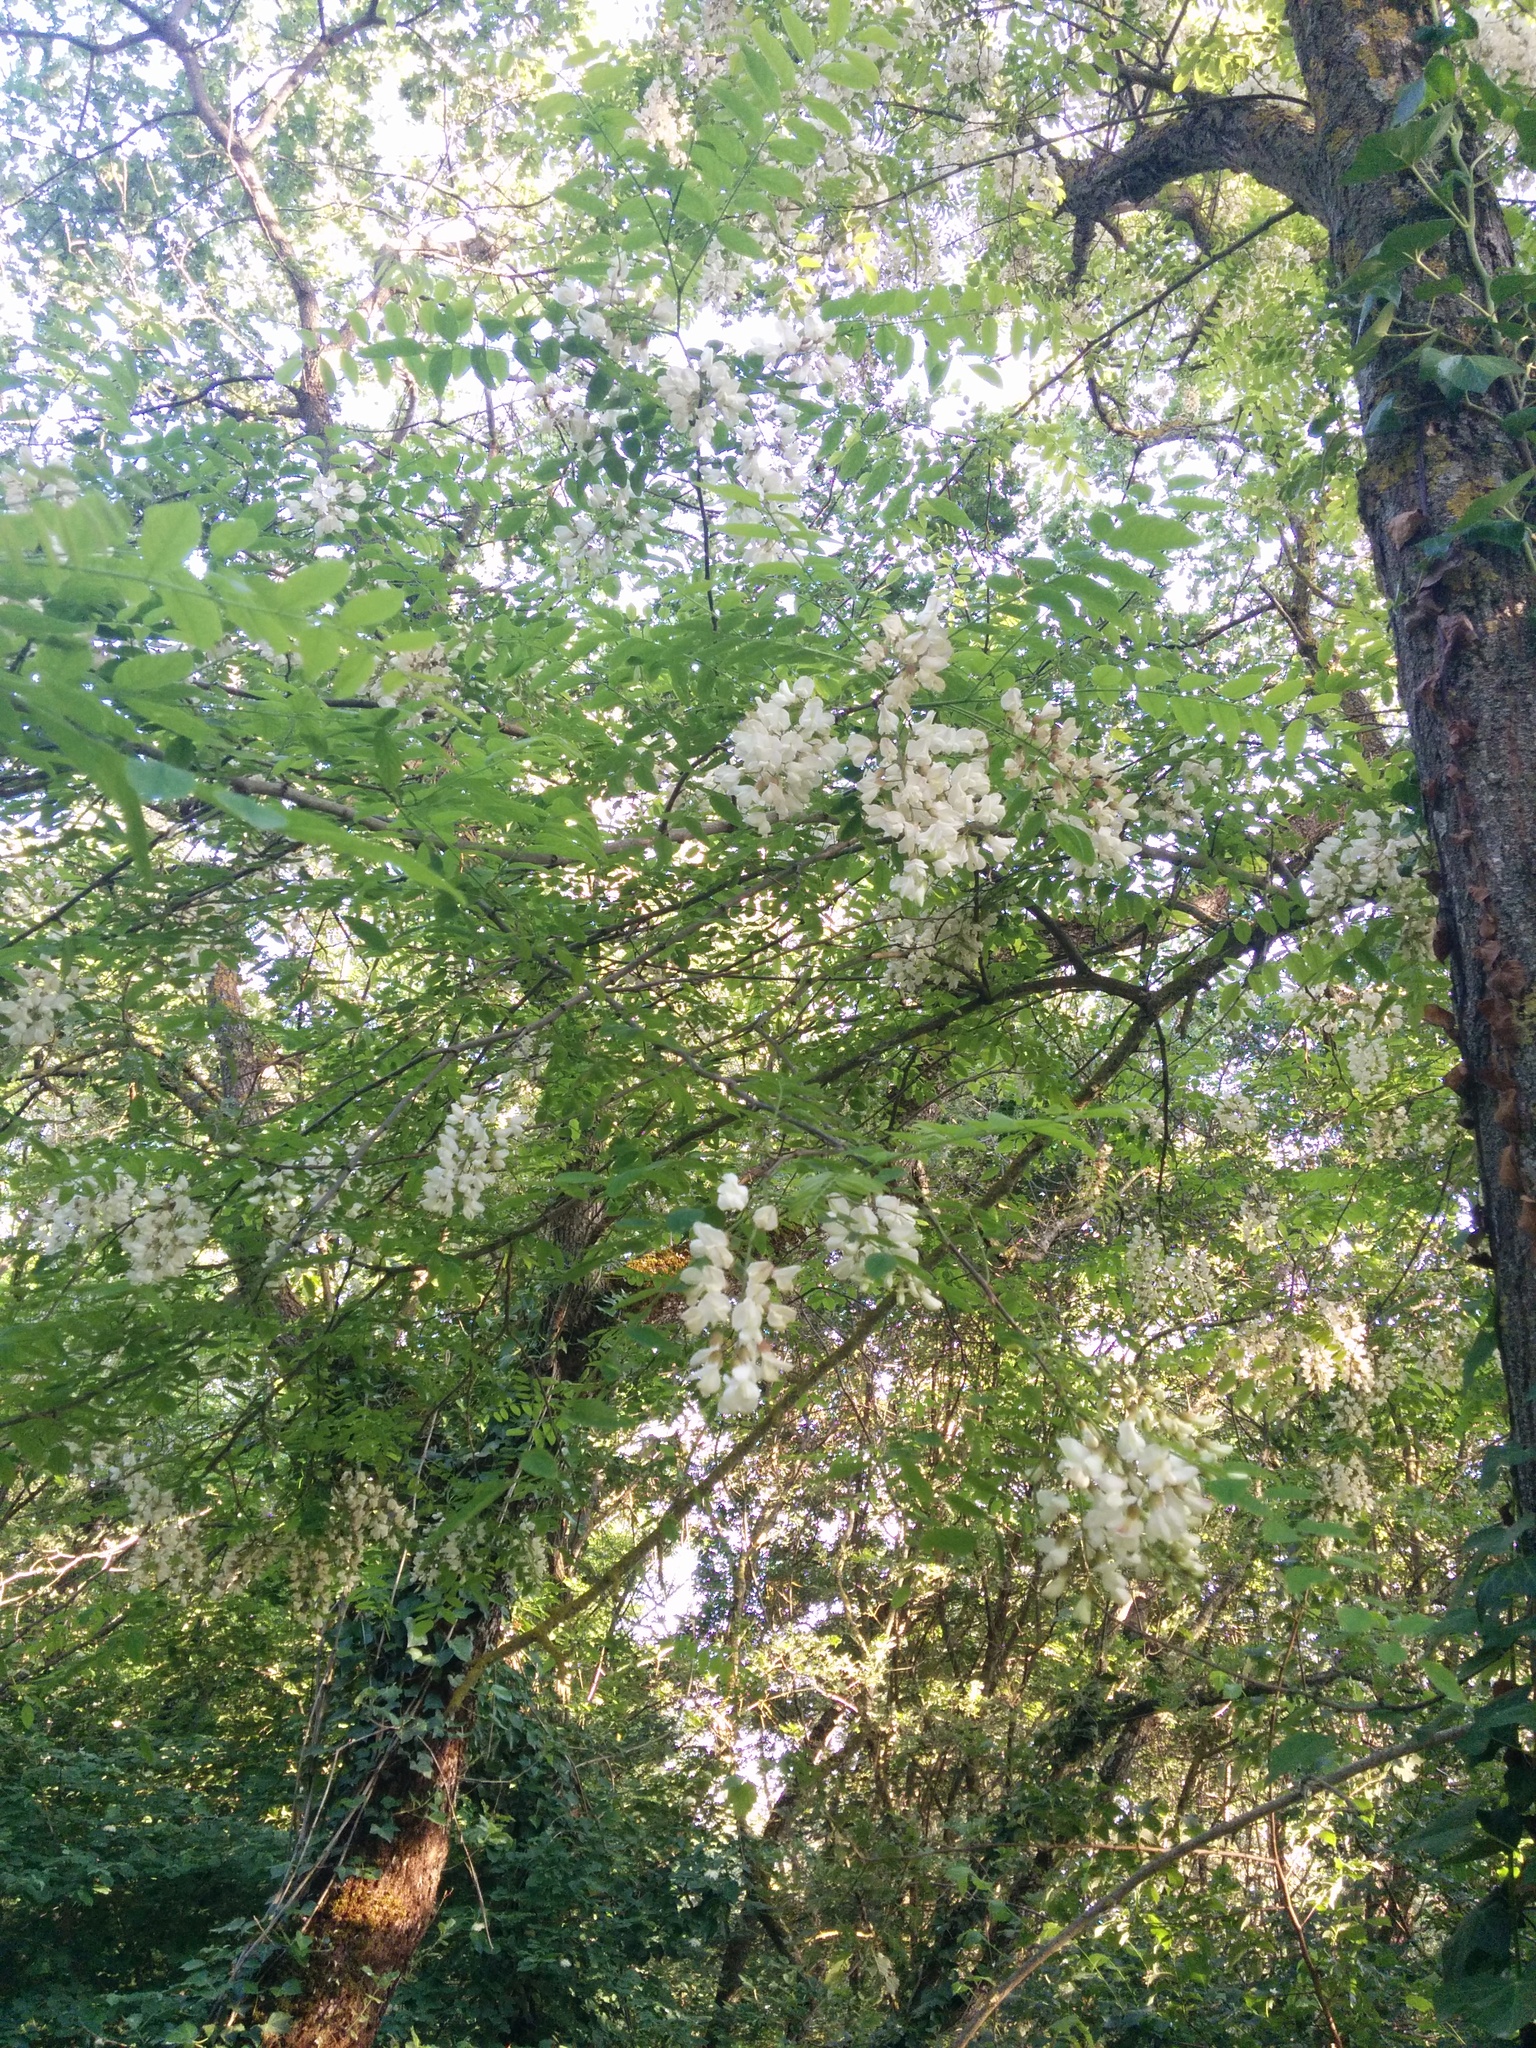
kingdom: Plantae
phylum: Tracheophyta
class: Magnoliopsida
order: Fabales
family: Fabaceae
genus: Robinia
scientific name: Robinia pseudoacacia
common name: Black locust
